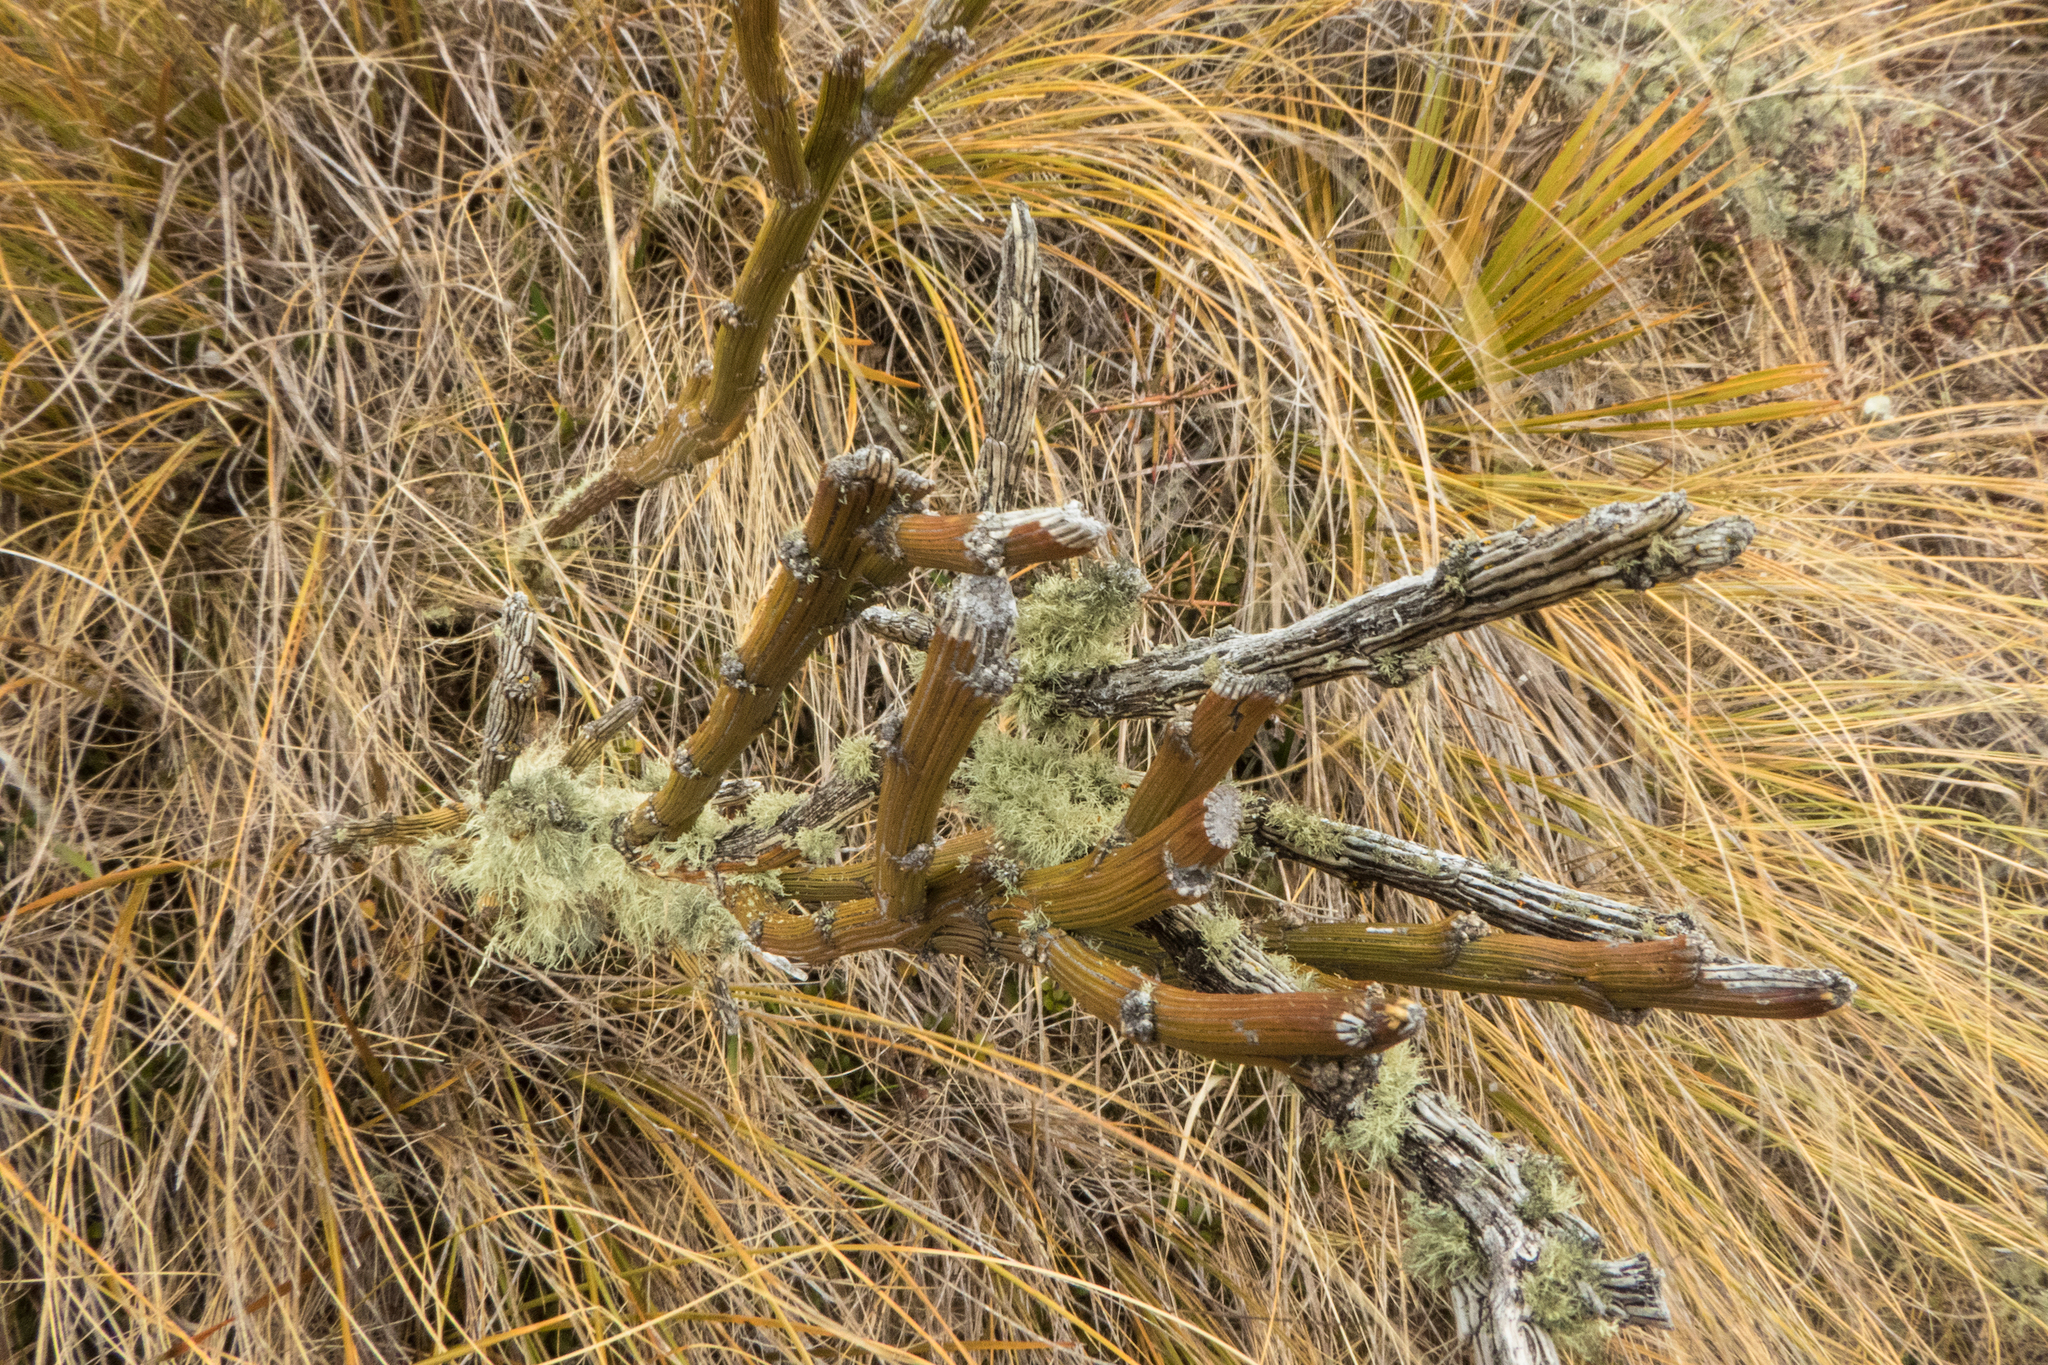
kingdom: Plantae
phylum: Tracheophyta
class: Magnoliopsida
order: Fabales
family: Fabaceae
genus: Carmichaelia
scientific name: Carmichaelia crassicaulis
